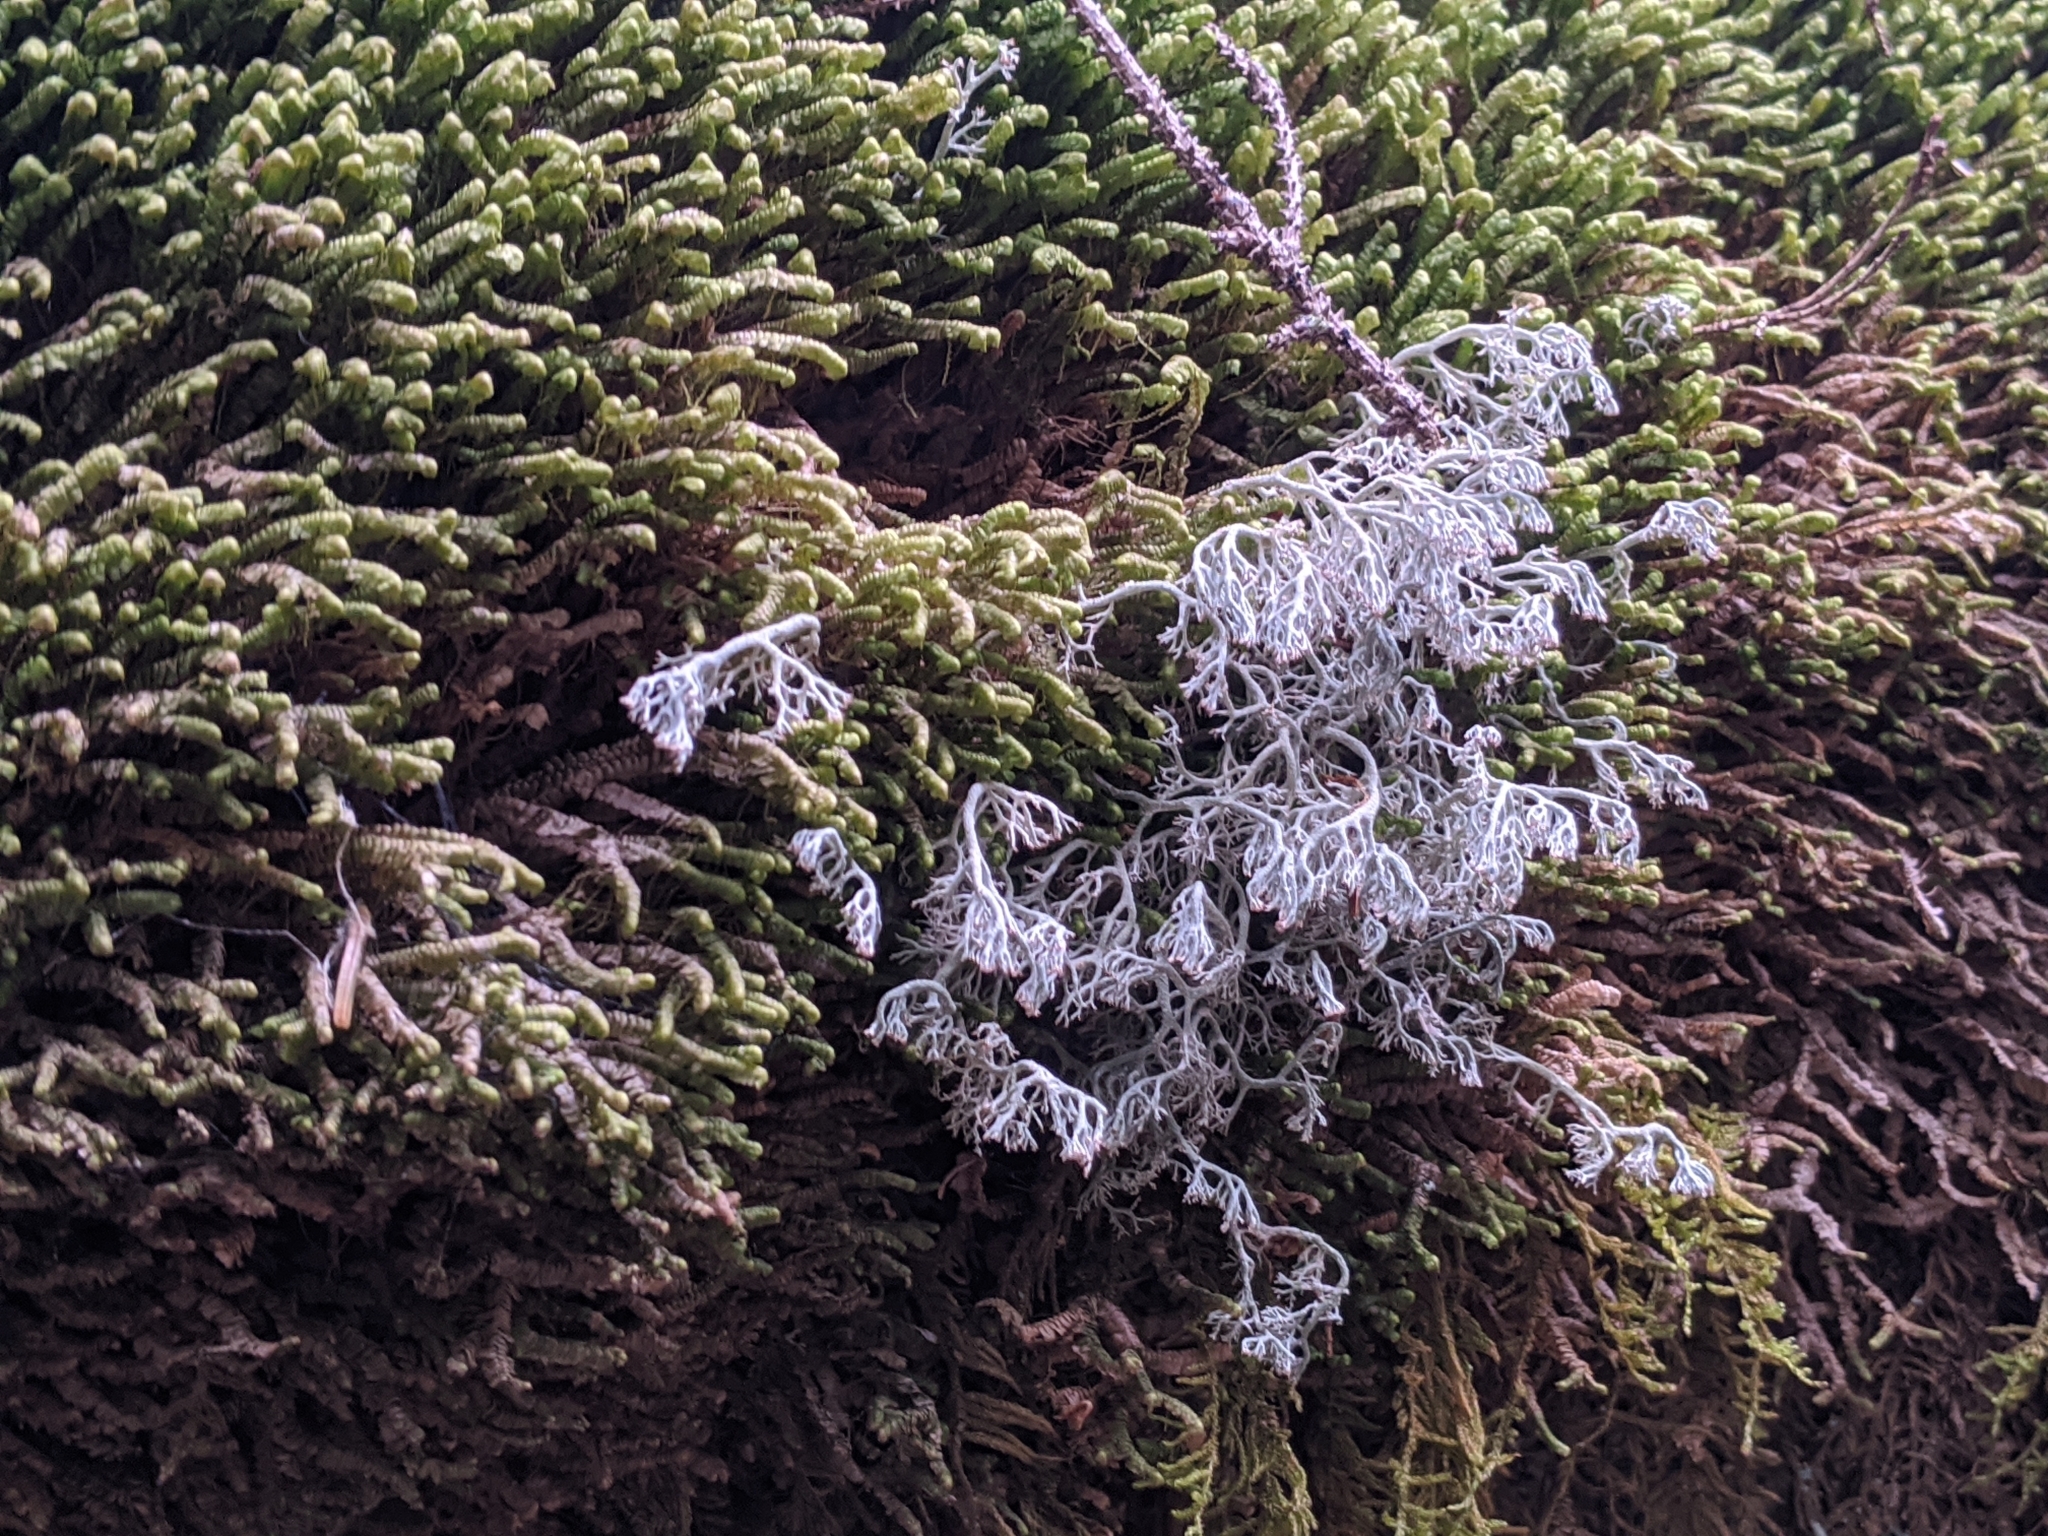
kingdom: Fungi
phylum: Ascomycota
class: Lecanoromycetes
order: Lecanorales
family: Cladoniaceae
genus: Cladonia
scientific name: Cladonia rangiferina
